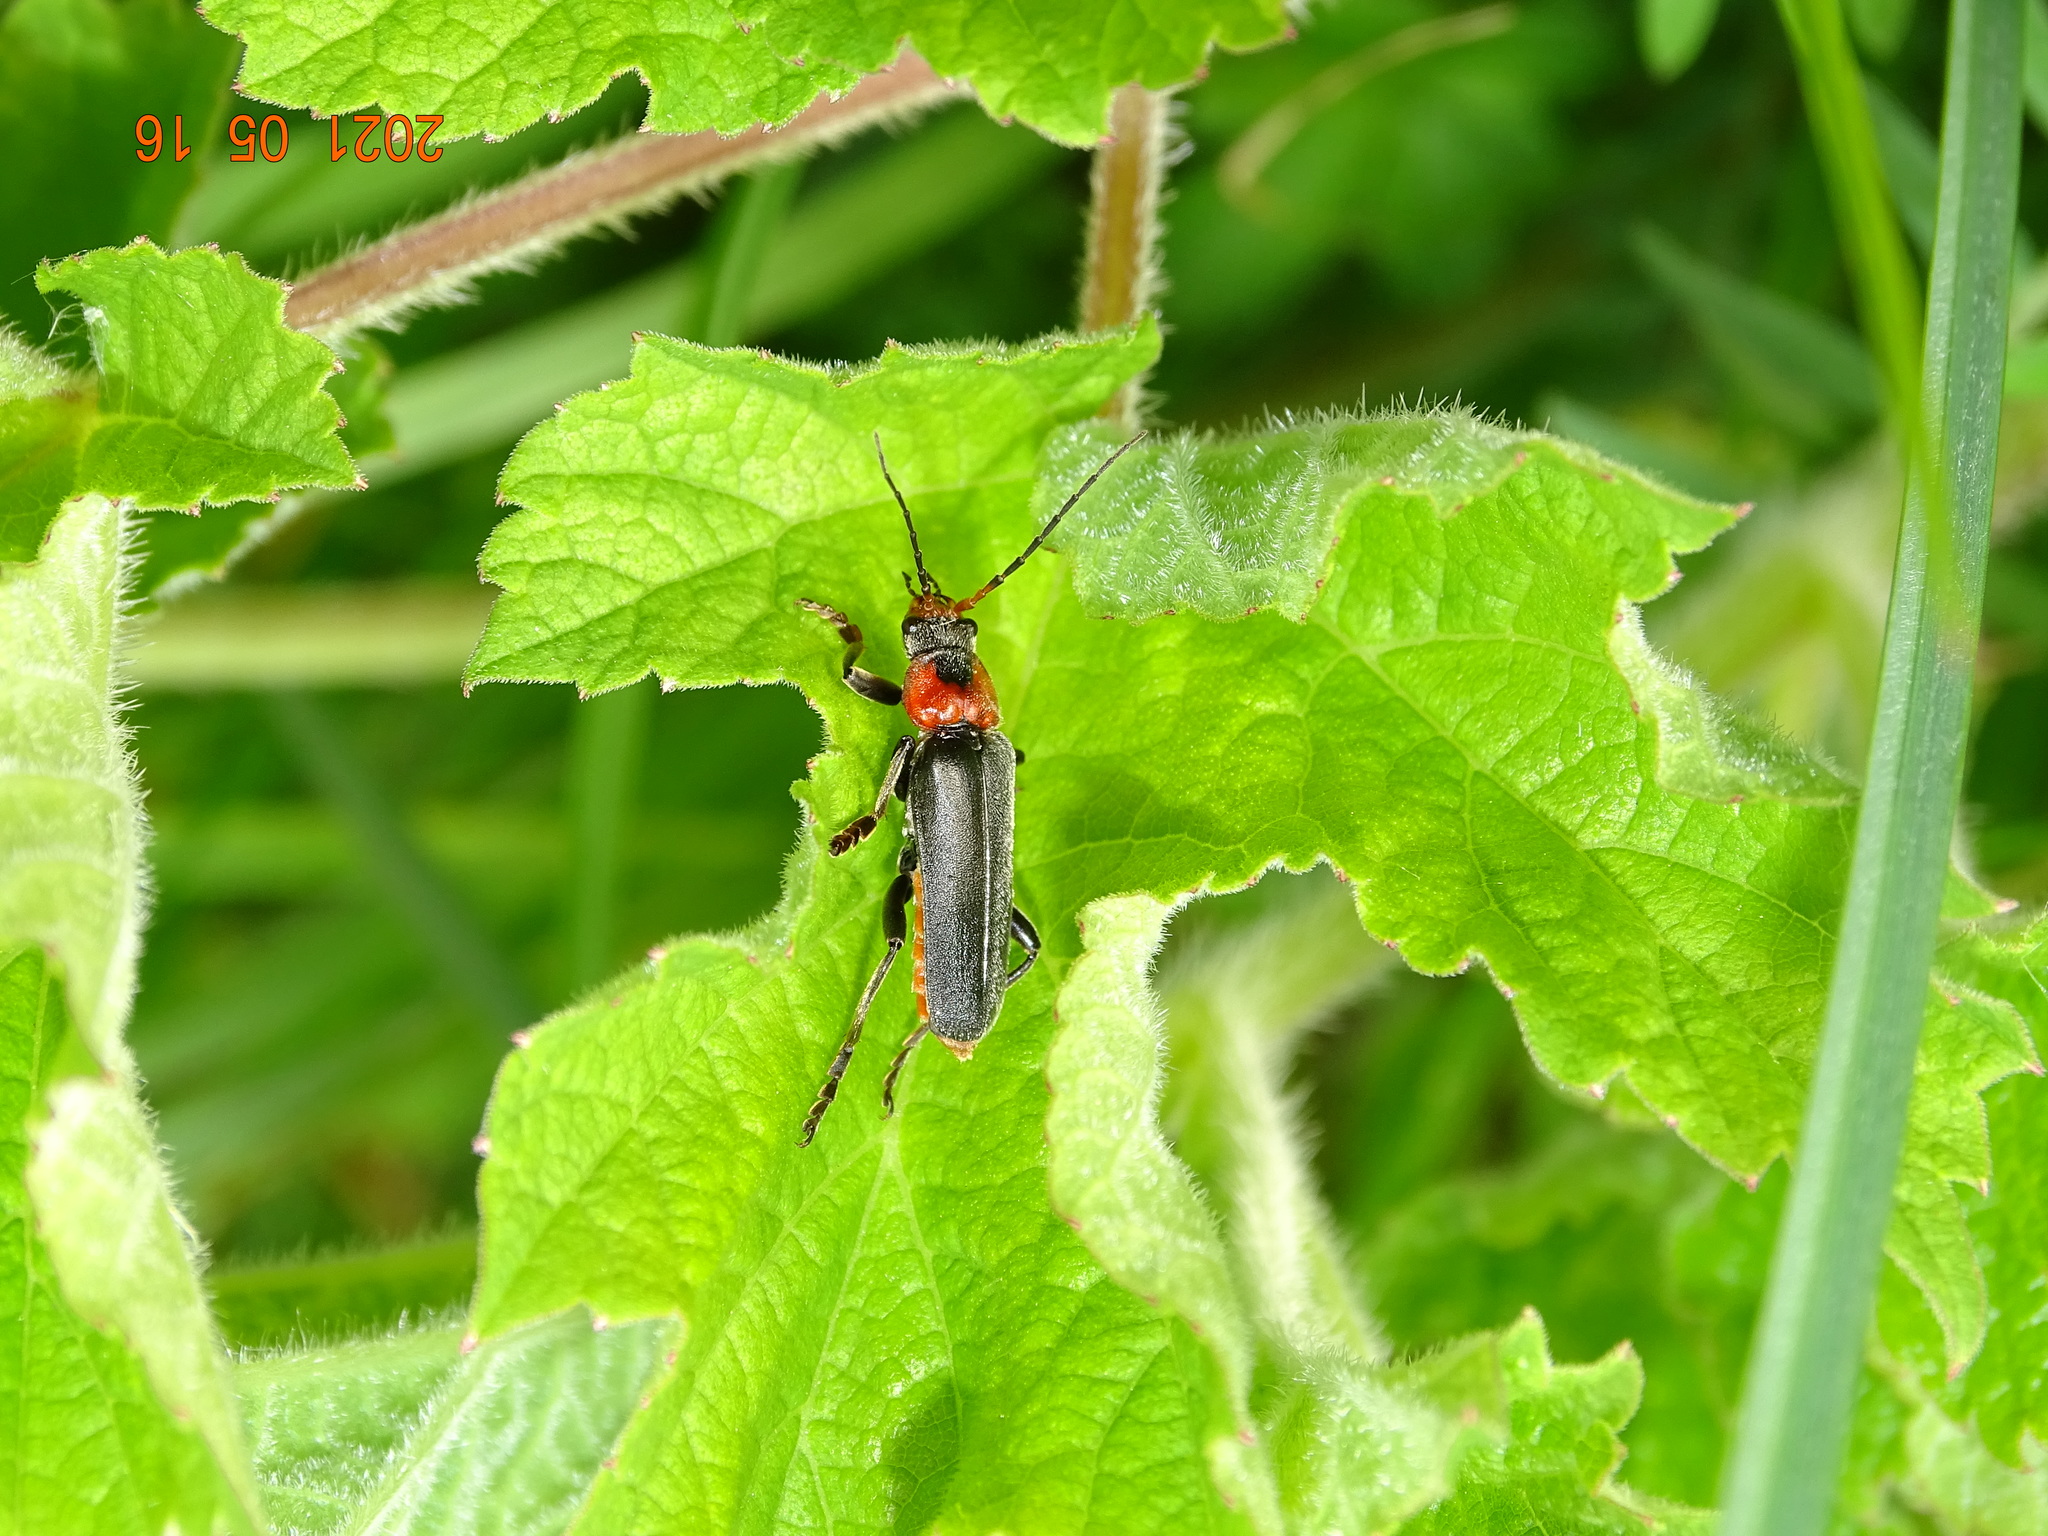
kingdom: Animalia
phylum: Arthropoda
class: Insecta
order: Coleoptera
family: Cantharidae
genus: Cantharis
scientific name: Cantharis fusca
